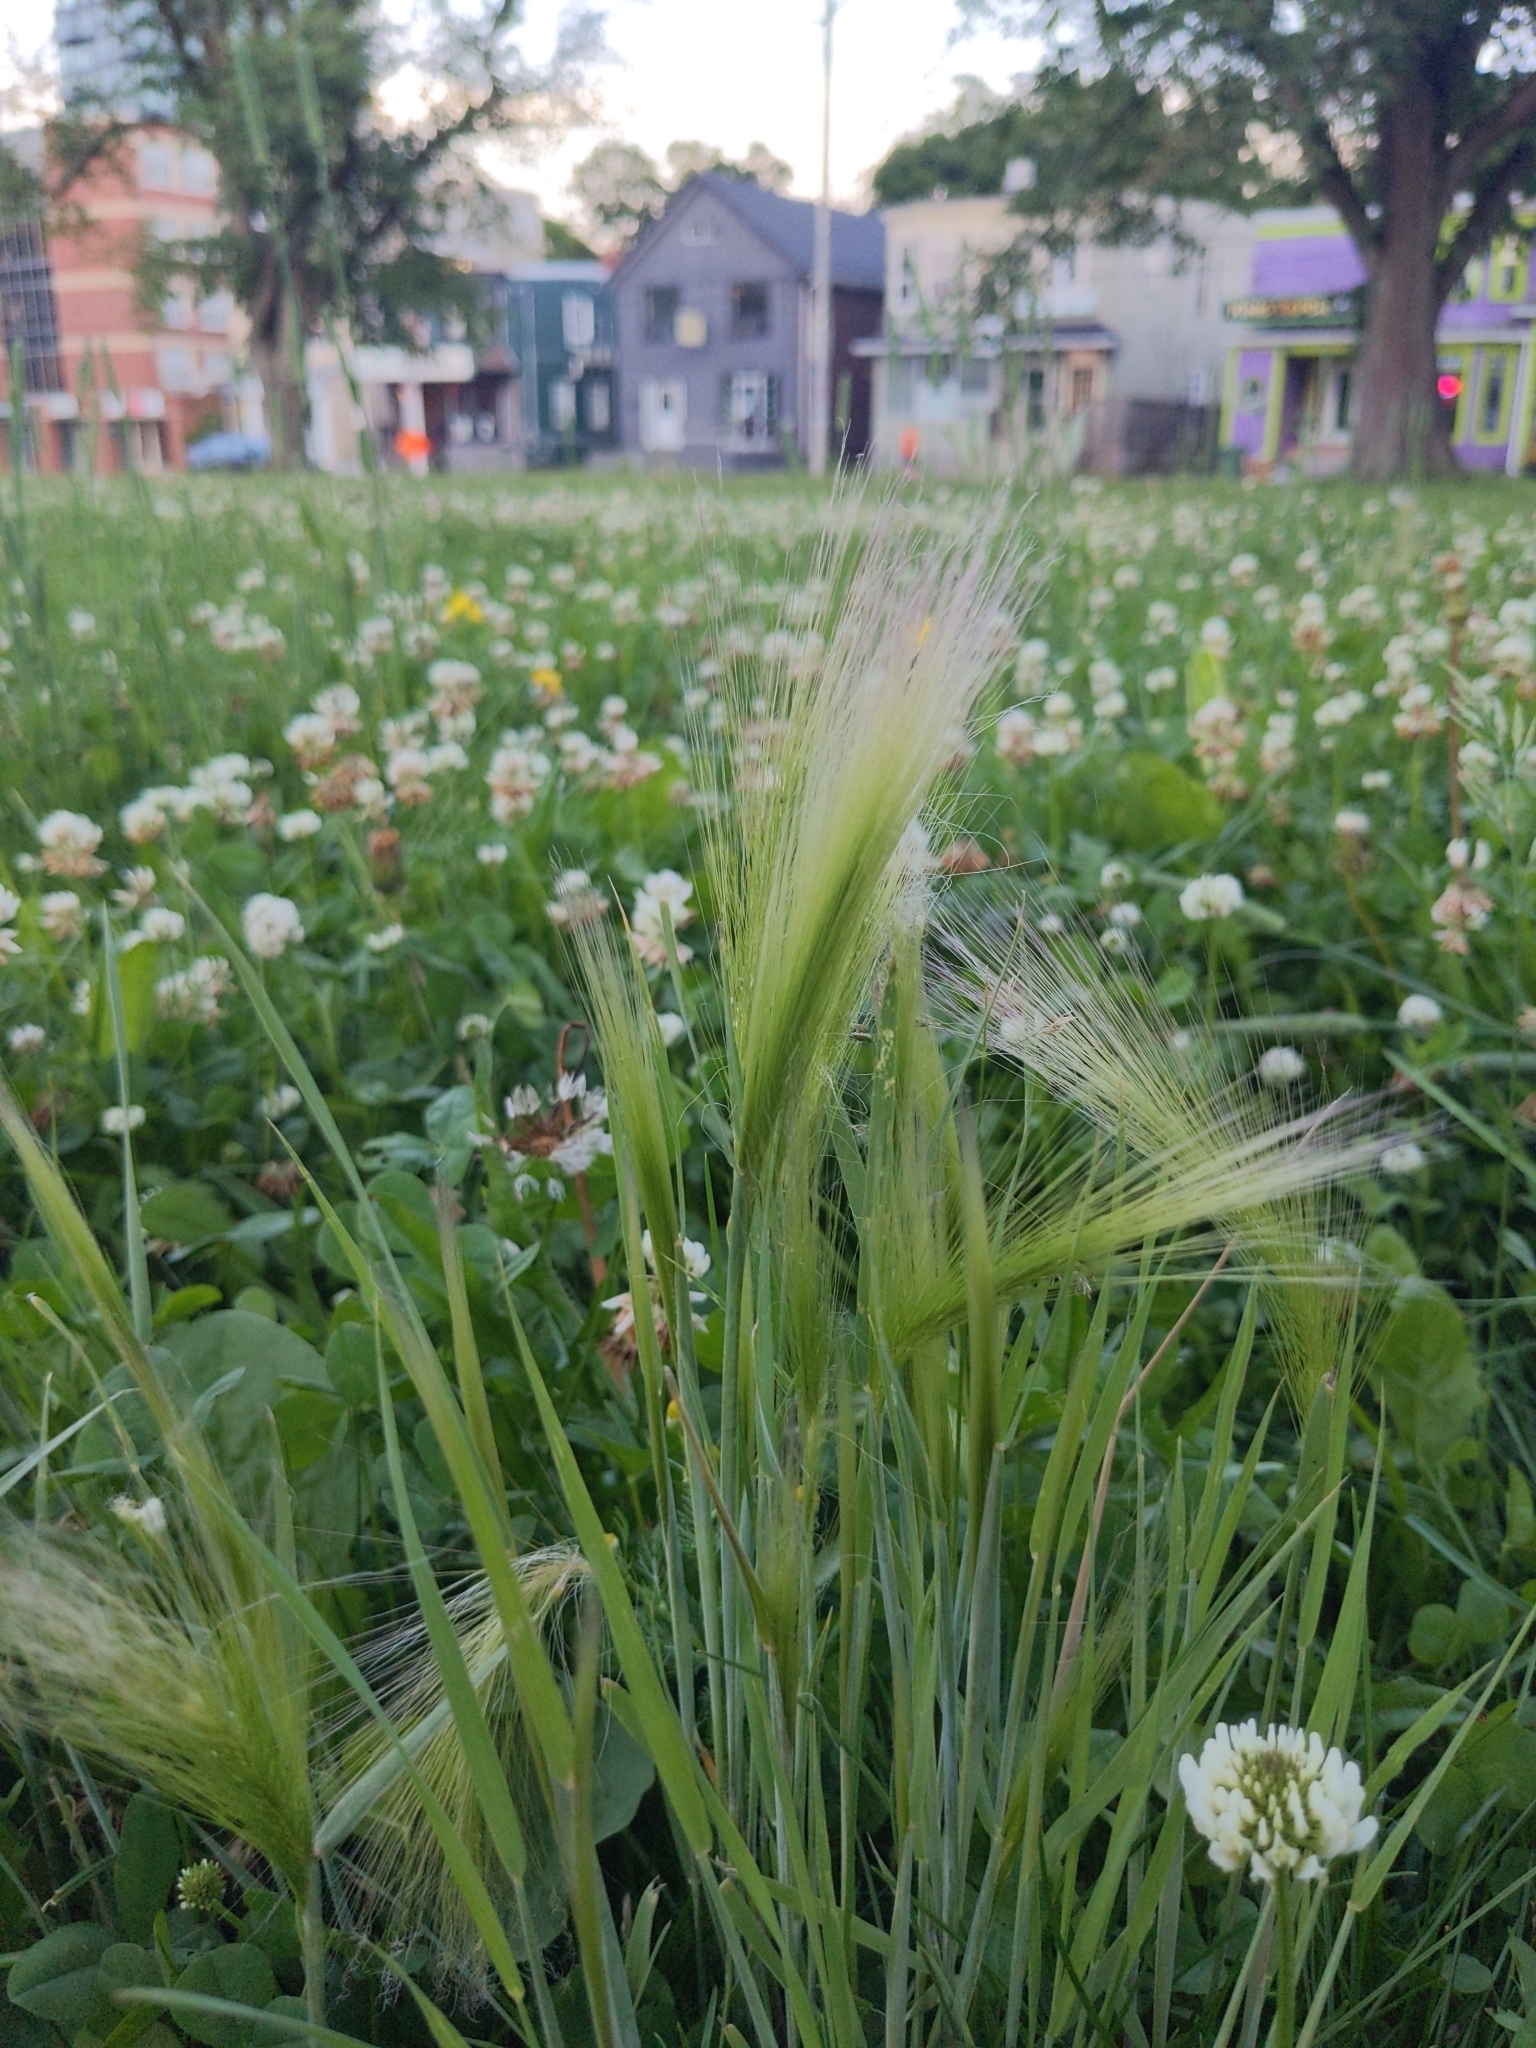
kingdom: Plantae
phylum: Tracheophyta
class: Liliopsida
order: Poales
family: Poaceae
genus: Hordeum
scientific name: Hordeum jubatum
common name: Foxtail barley
